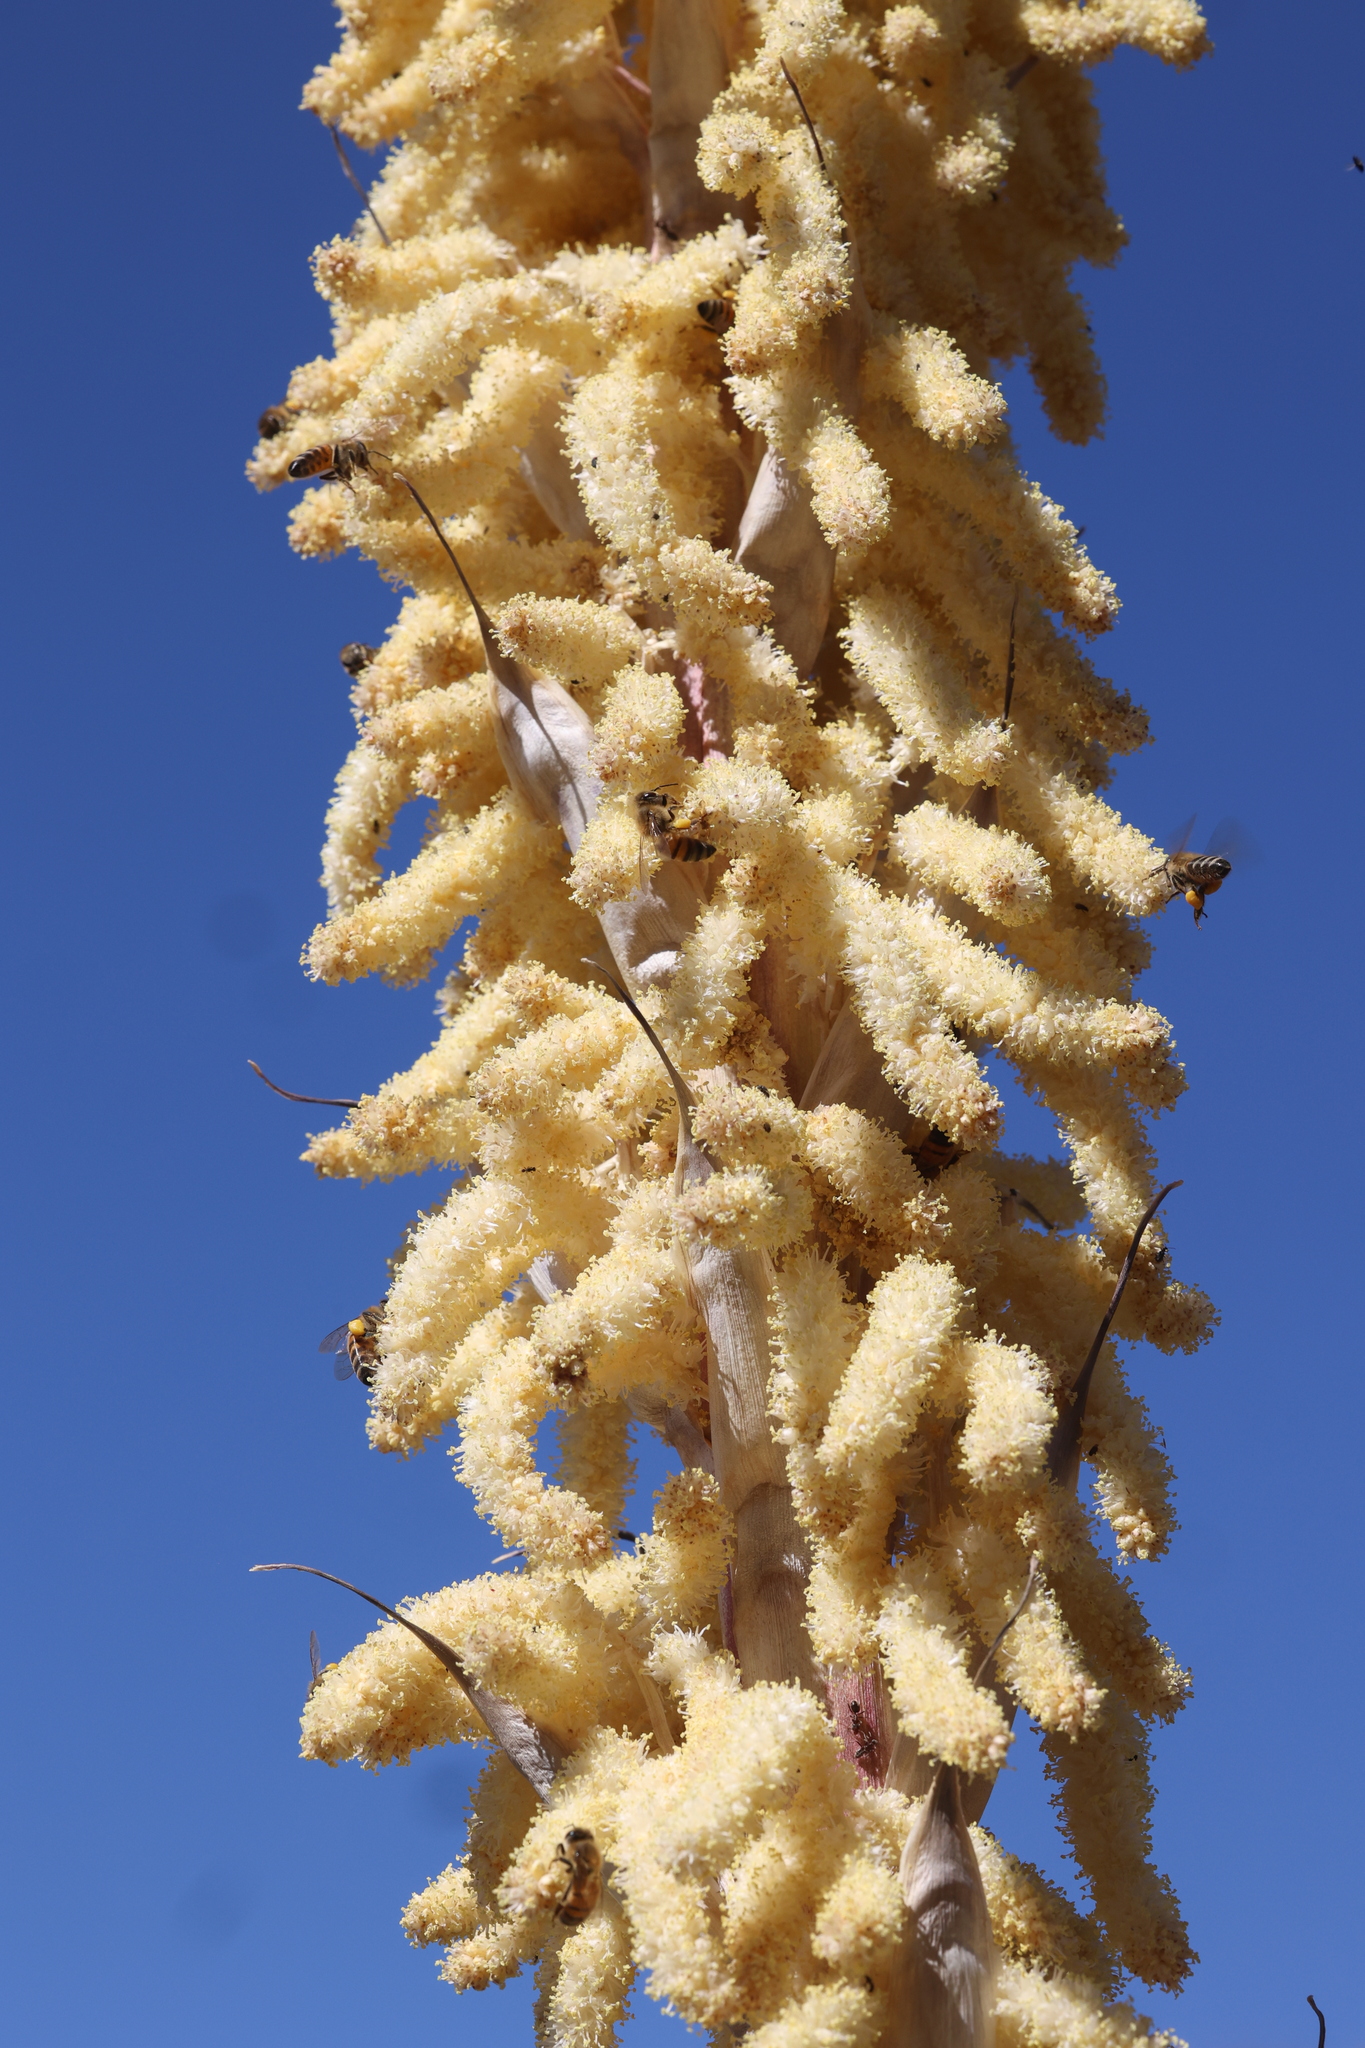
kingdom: Plantae
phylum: Tracheophyta
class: Liliopsida
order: Asparagales
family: Asparagaceae
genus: Dasylirion
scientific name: Dasylirion wheeleri
